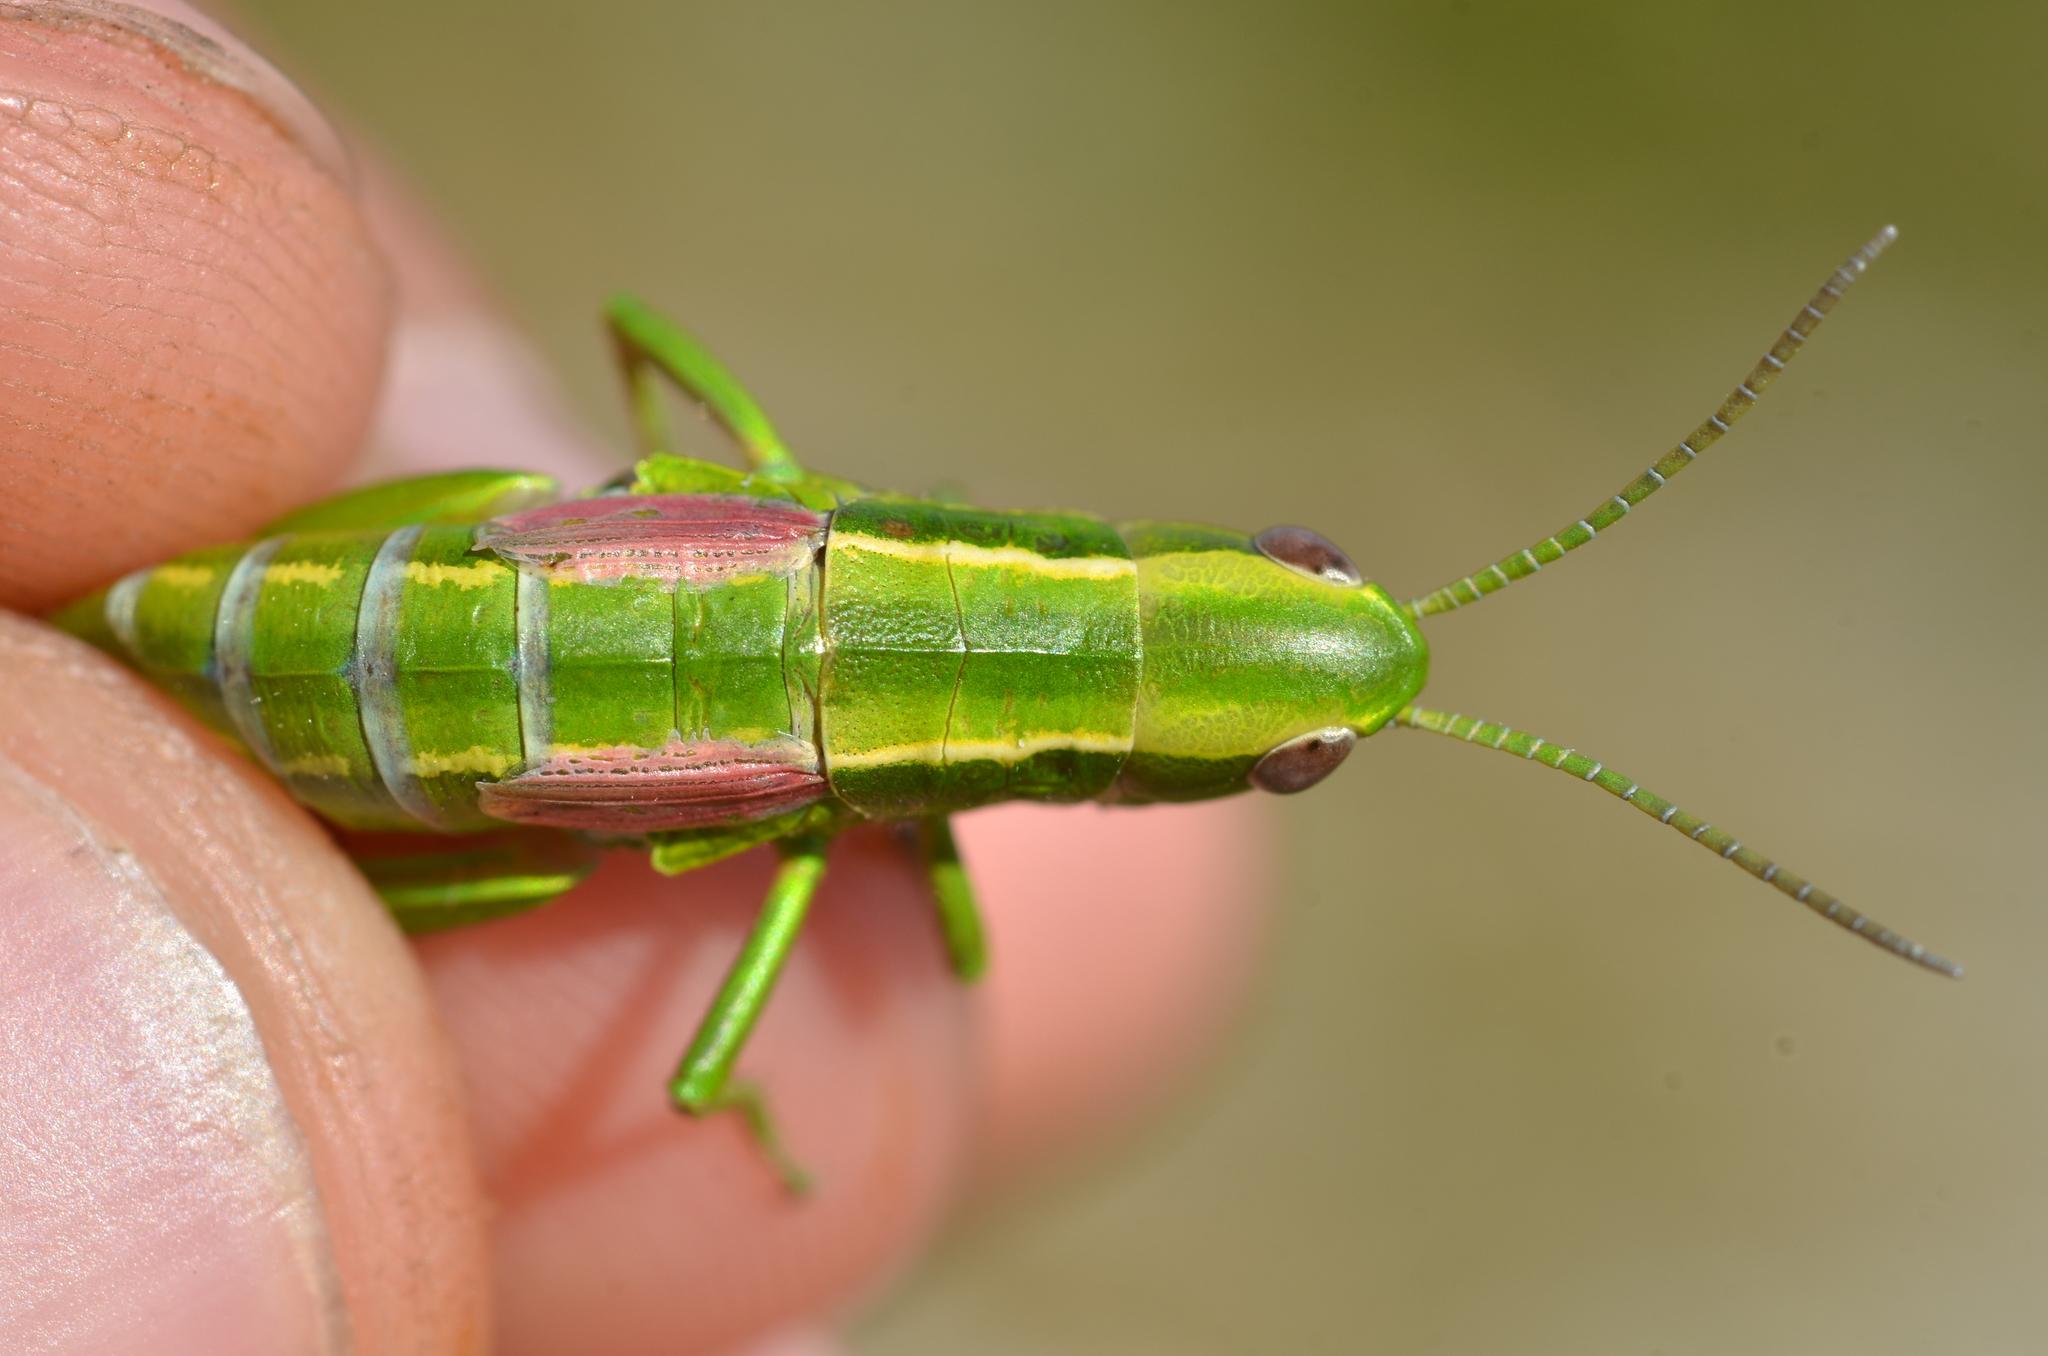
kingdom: Animalia
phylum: Arthropoda
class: Insecta
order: Orthoptera
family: Acrididae
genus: Euthystira
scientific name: Euthystira brachyptera
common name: Small gold grasshopper
